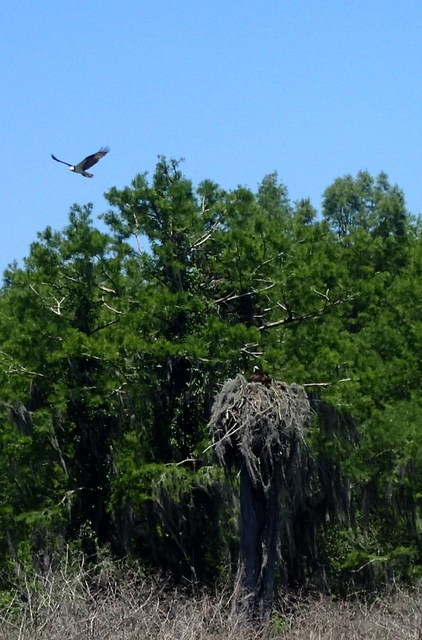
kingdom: Animalia
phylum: Chordata
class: Aves
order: Accipitriformes
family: Pandionidae
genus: Pandion
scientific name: Pandion haliaetus
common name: Osprey
